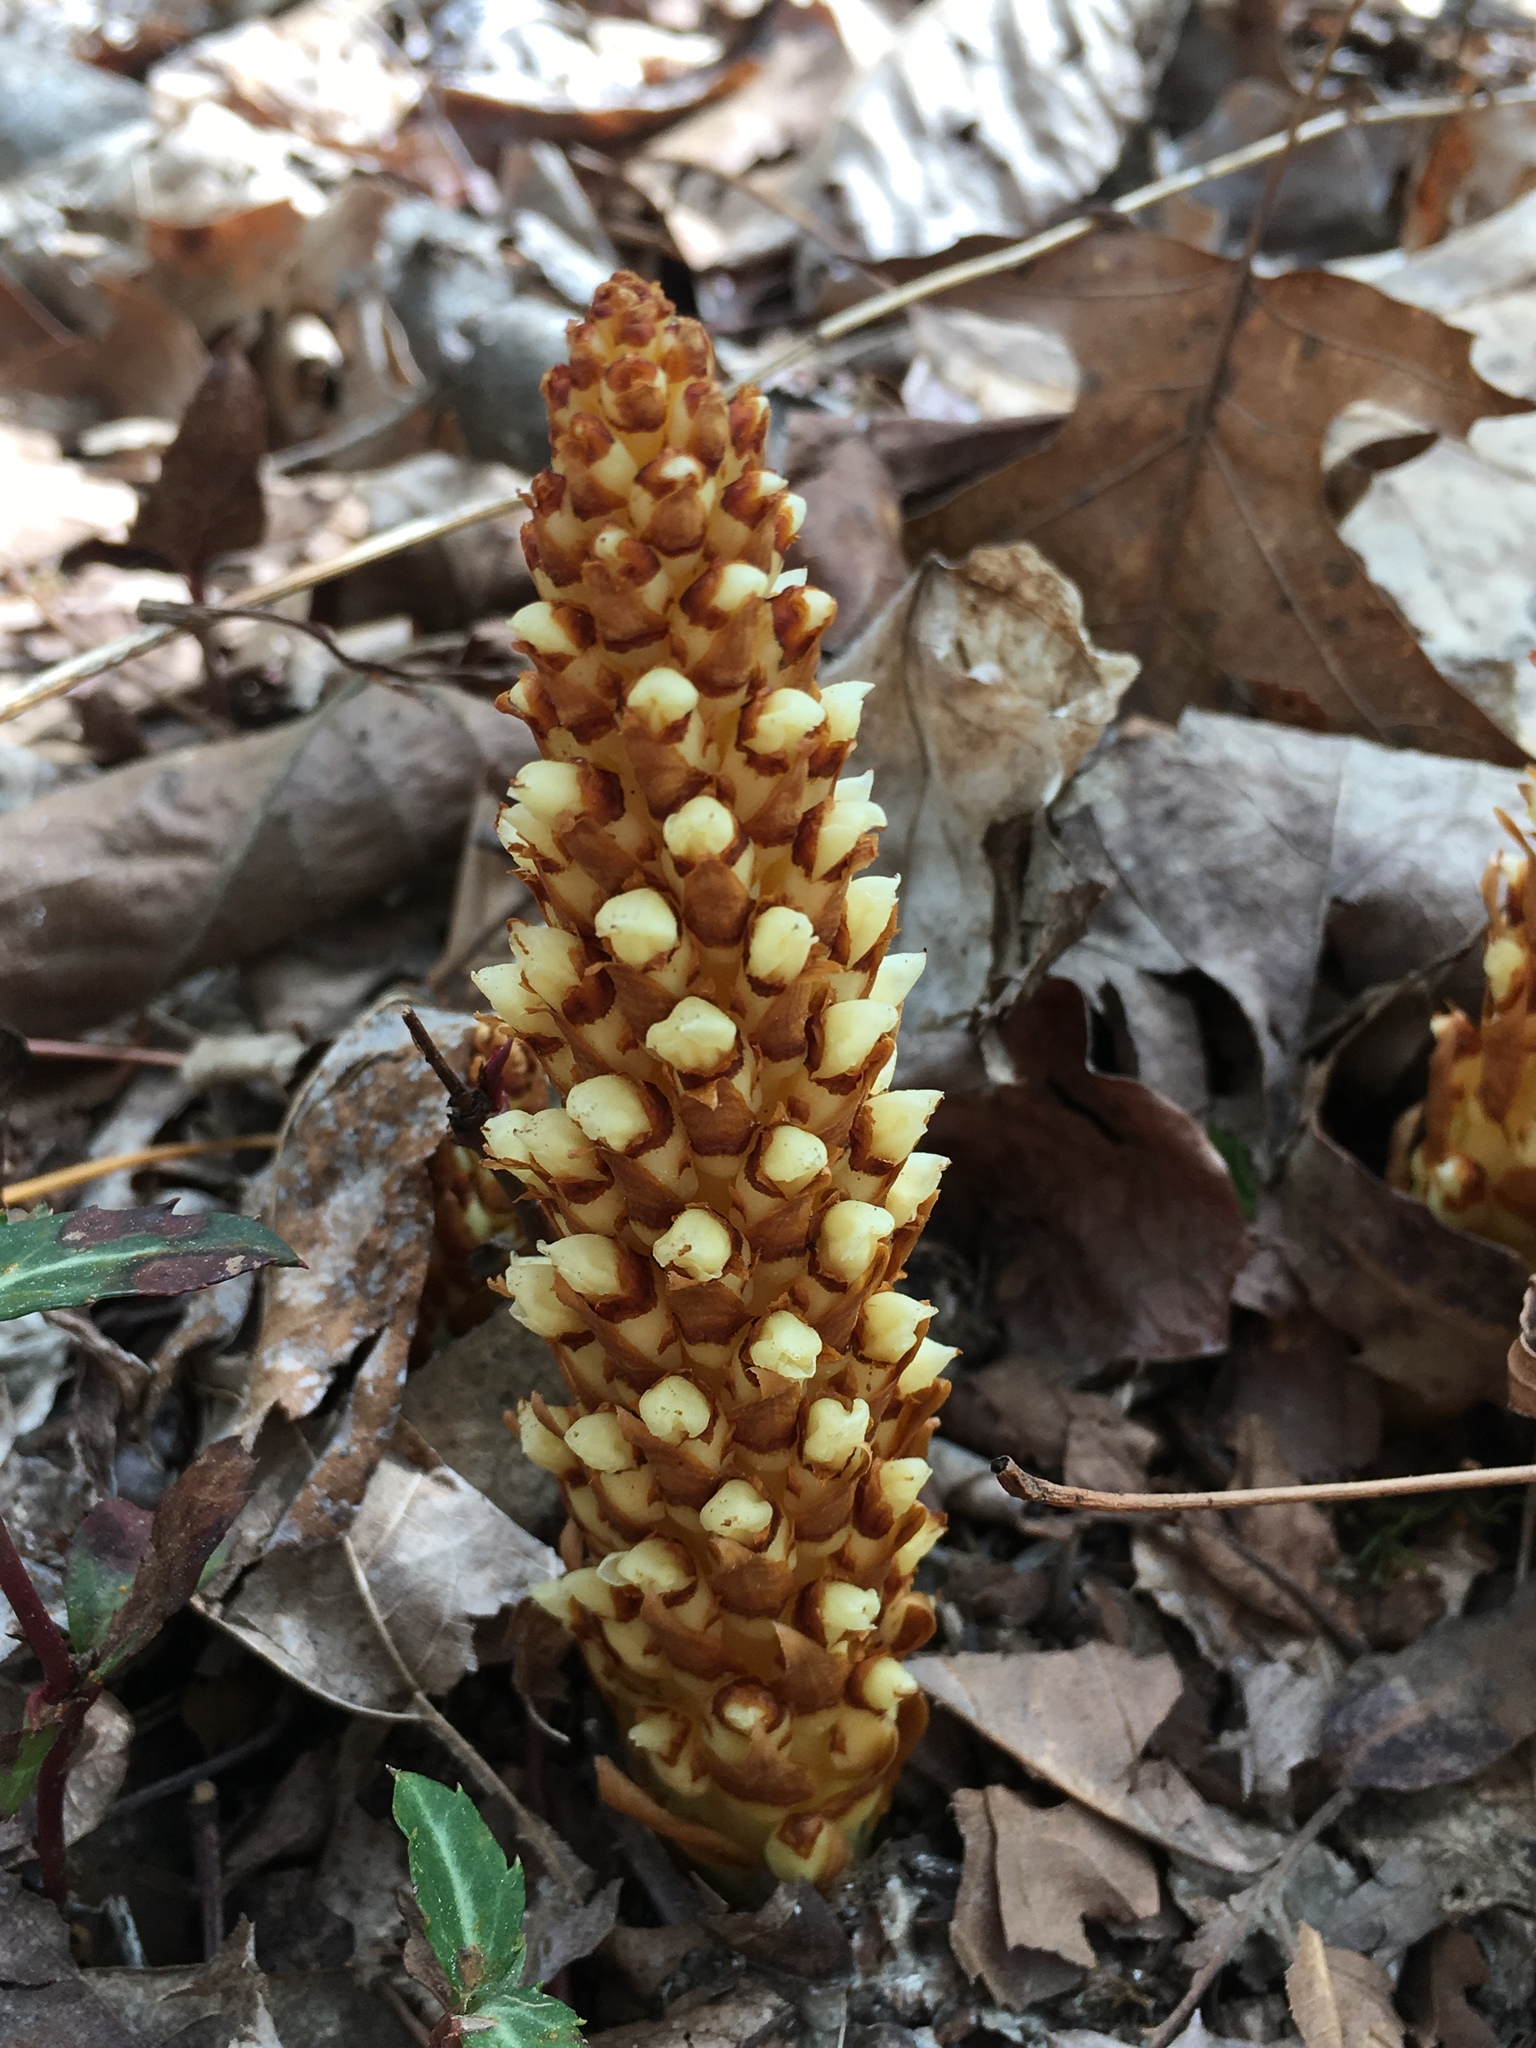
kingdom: Plantae
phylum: Tracheophyta
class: Magnoliopsida
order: Lamiales
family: Orobanchaceae
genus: Conopholis
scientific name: Conopholis americana
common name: American cancer-root
